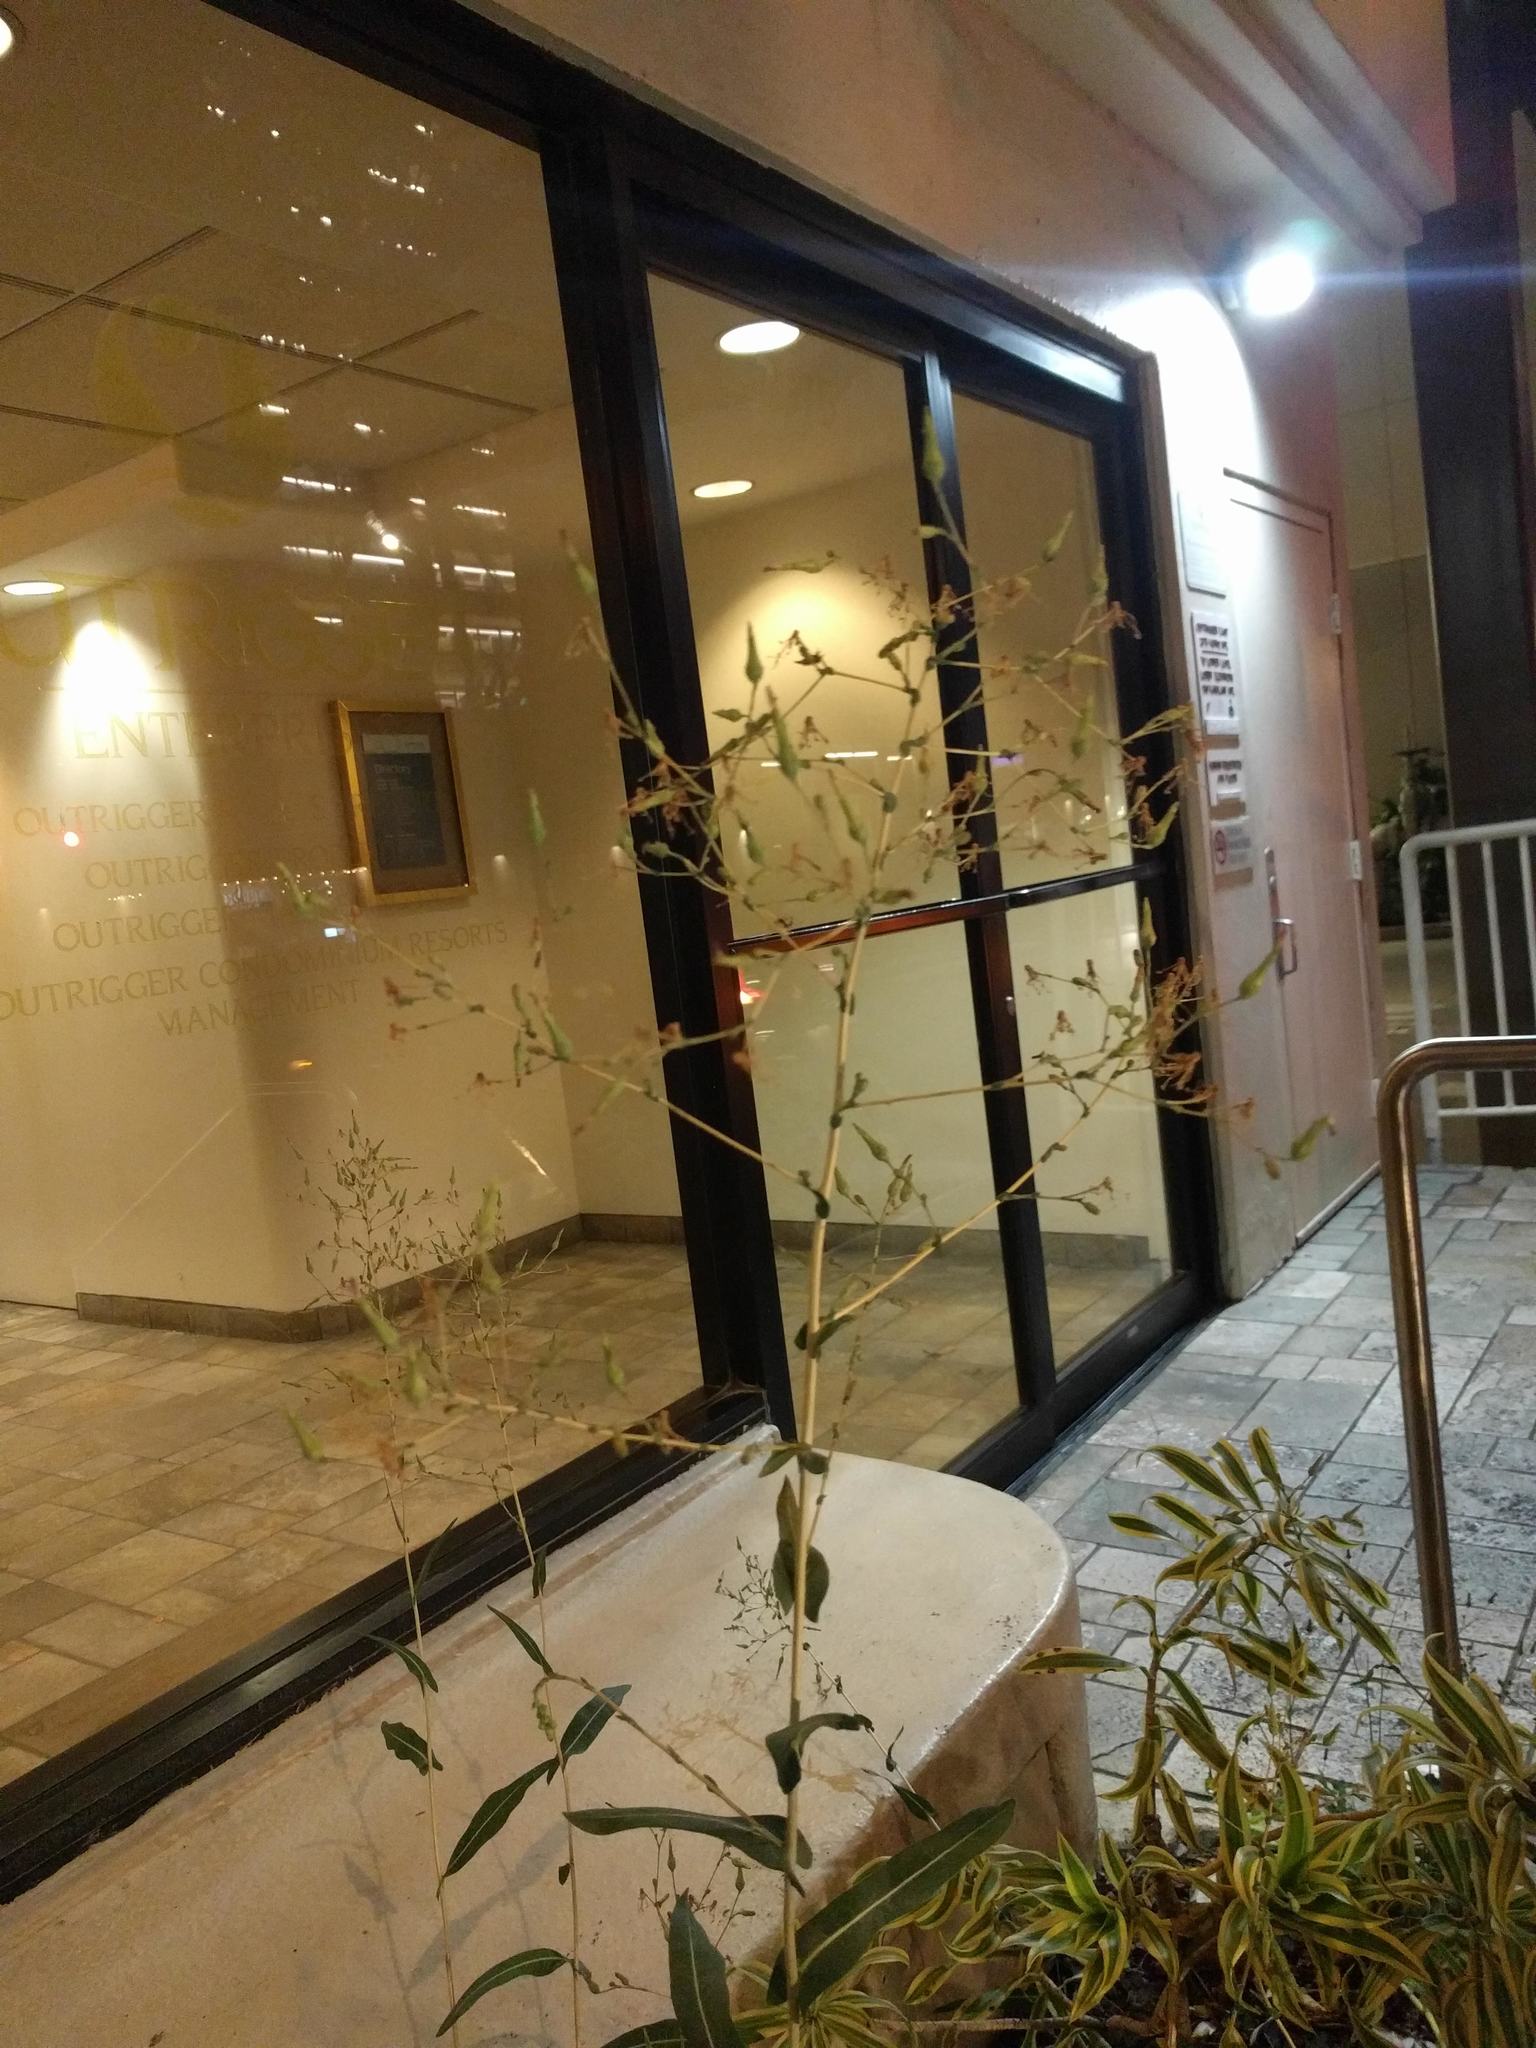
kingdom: Plantae
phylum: Tracheophyta
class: Magnoliopsida
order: Asterales
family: Asteraceae
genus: Lactuca
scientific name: Lactuca serriola
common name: Prickly lettuce
